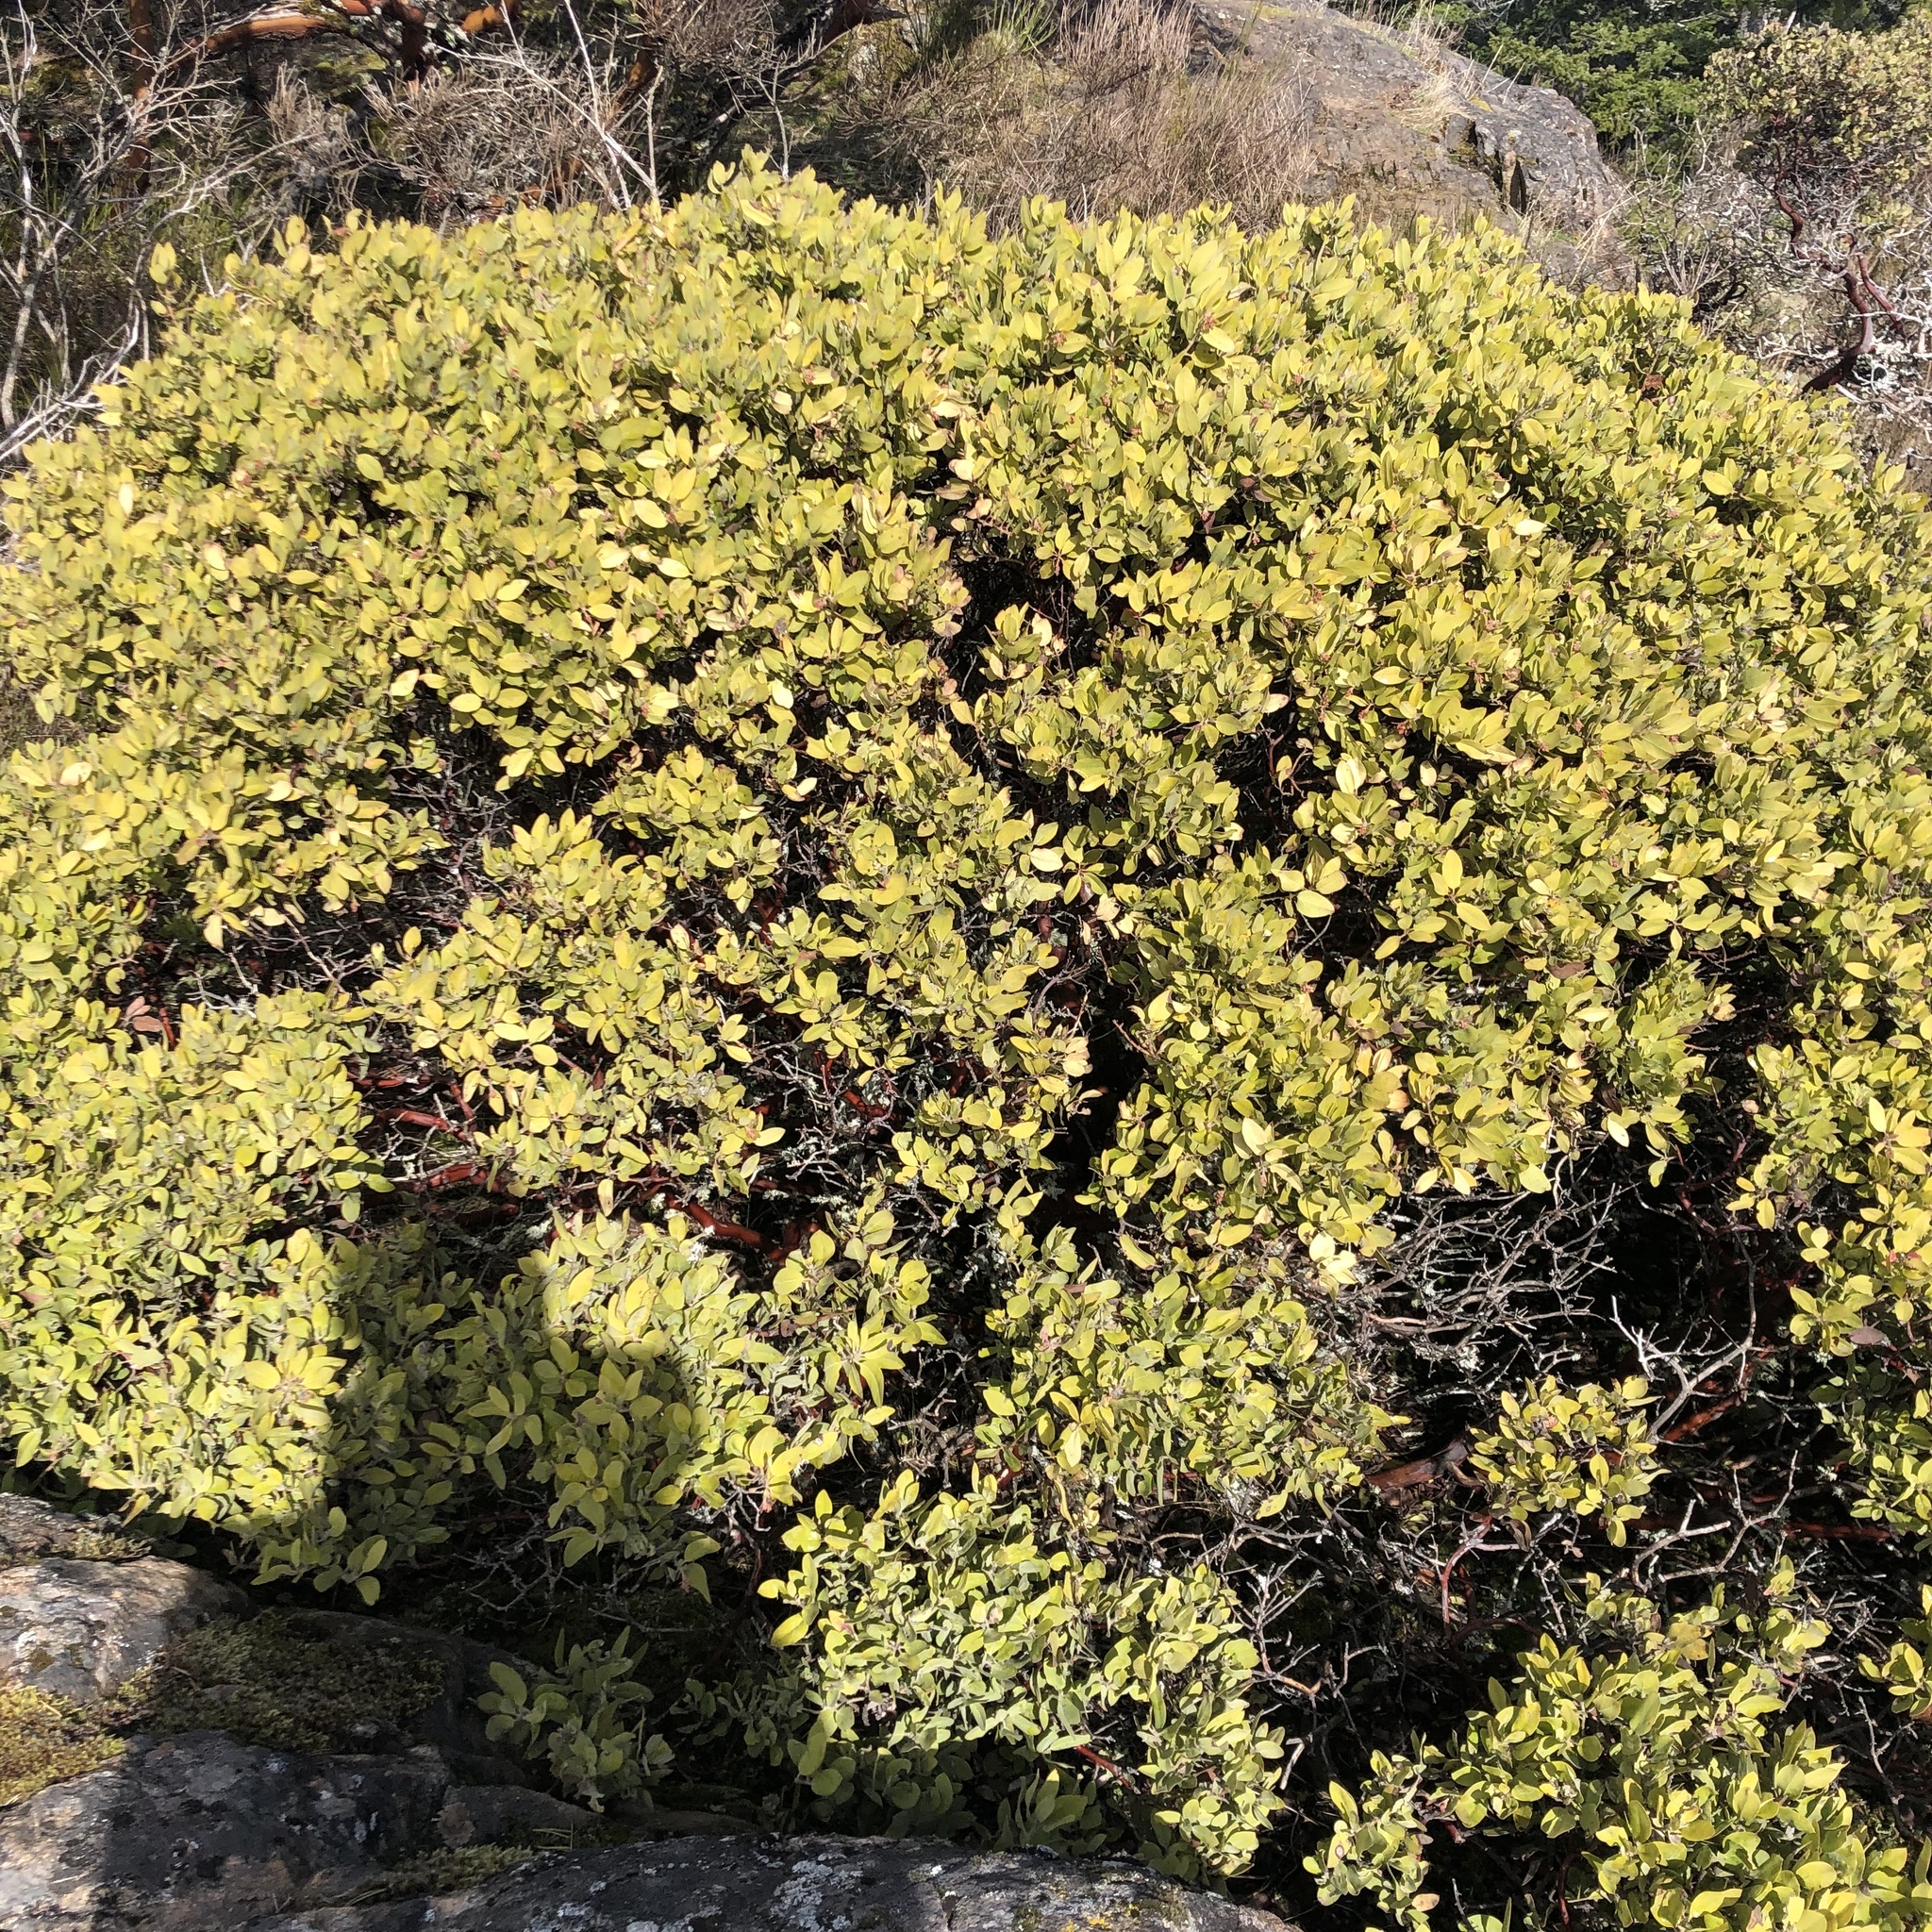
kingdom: Plantae
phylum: Tracheophyta
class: Magnoliopsida
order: Ericales
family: Ericaceae
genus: Arctostaphylos
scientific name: Arctostaphylos columbiana
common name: Bristly bearberry
